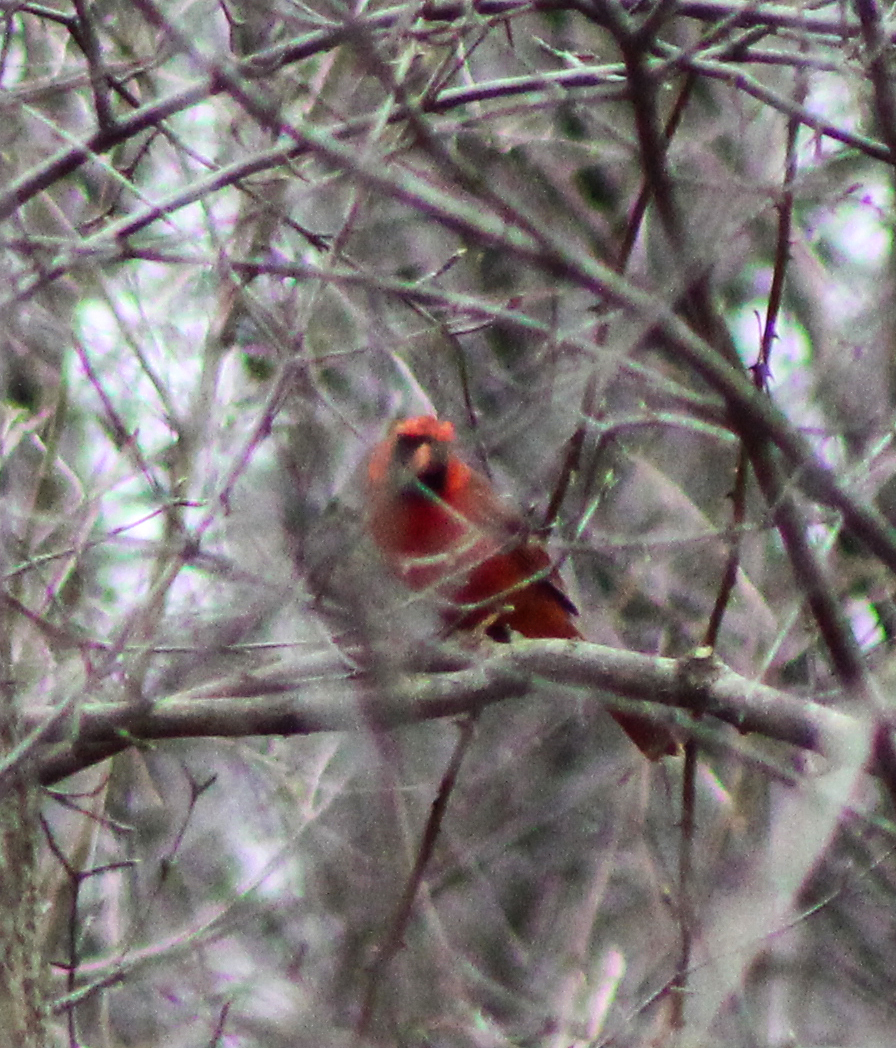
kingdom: Animalia
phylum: Chordata
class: Aves
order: Passeriformes
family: Cardinalidae
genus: Cardinalis
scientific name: Cardinalis cardinalis
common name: Northern cardinal
